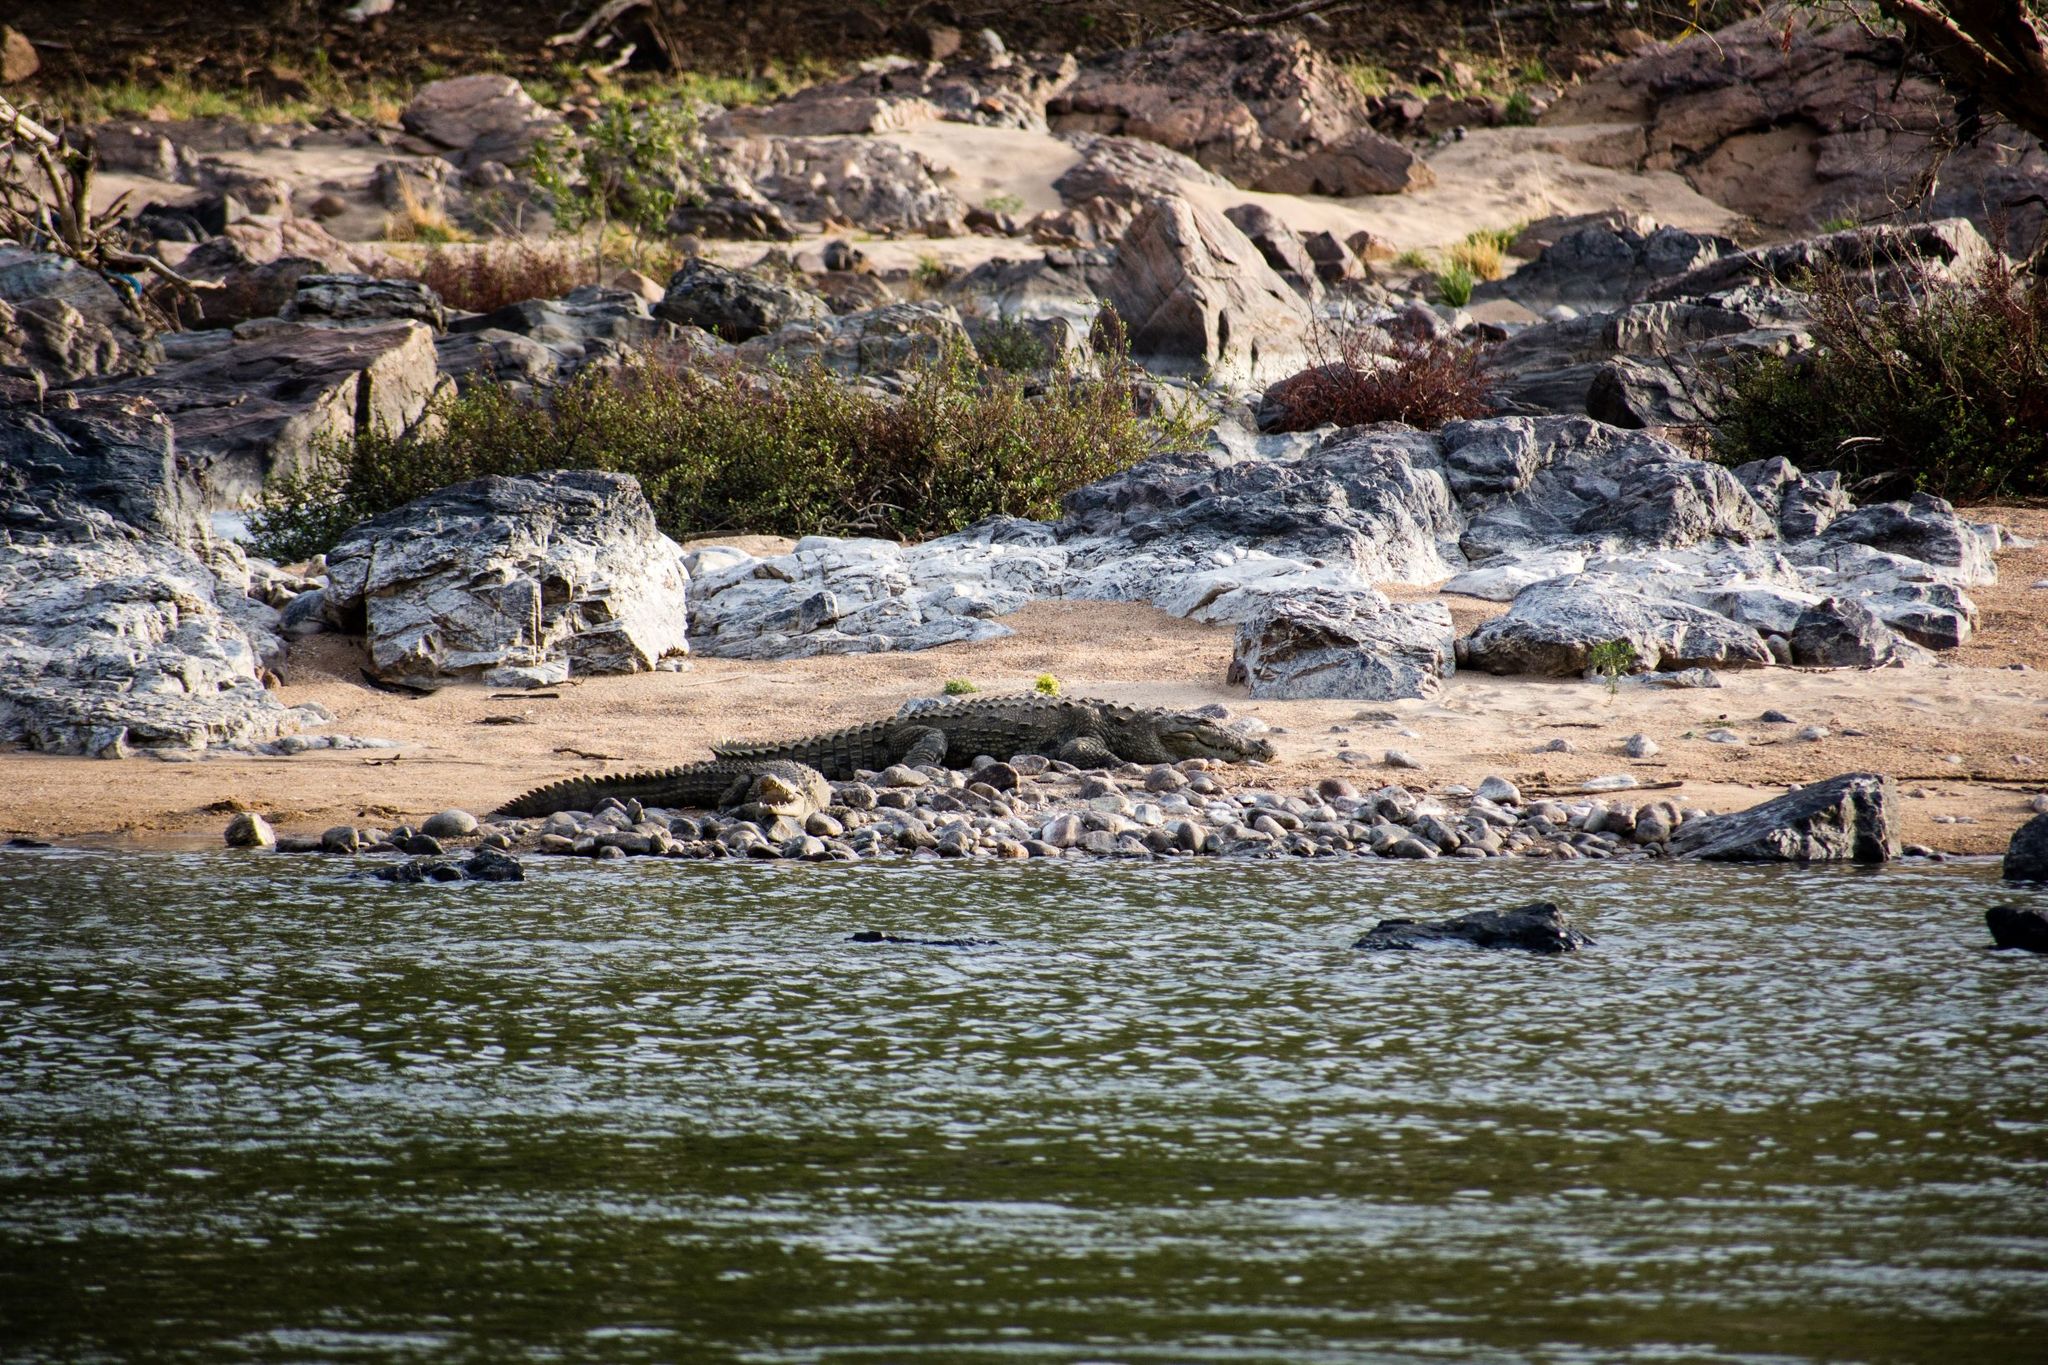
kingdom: Animalia
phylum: Chordata
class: Crocodylia
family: Crocodylidae
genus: Crocodylus
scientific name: Crocodylus palustris
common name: Mugger crocodile
